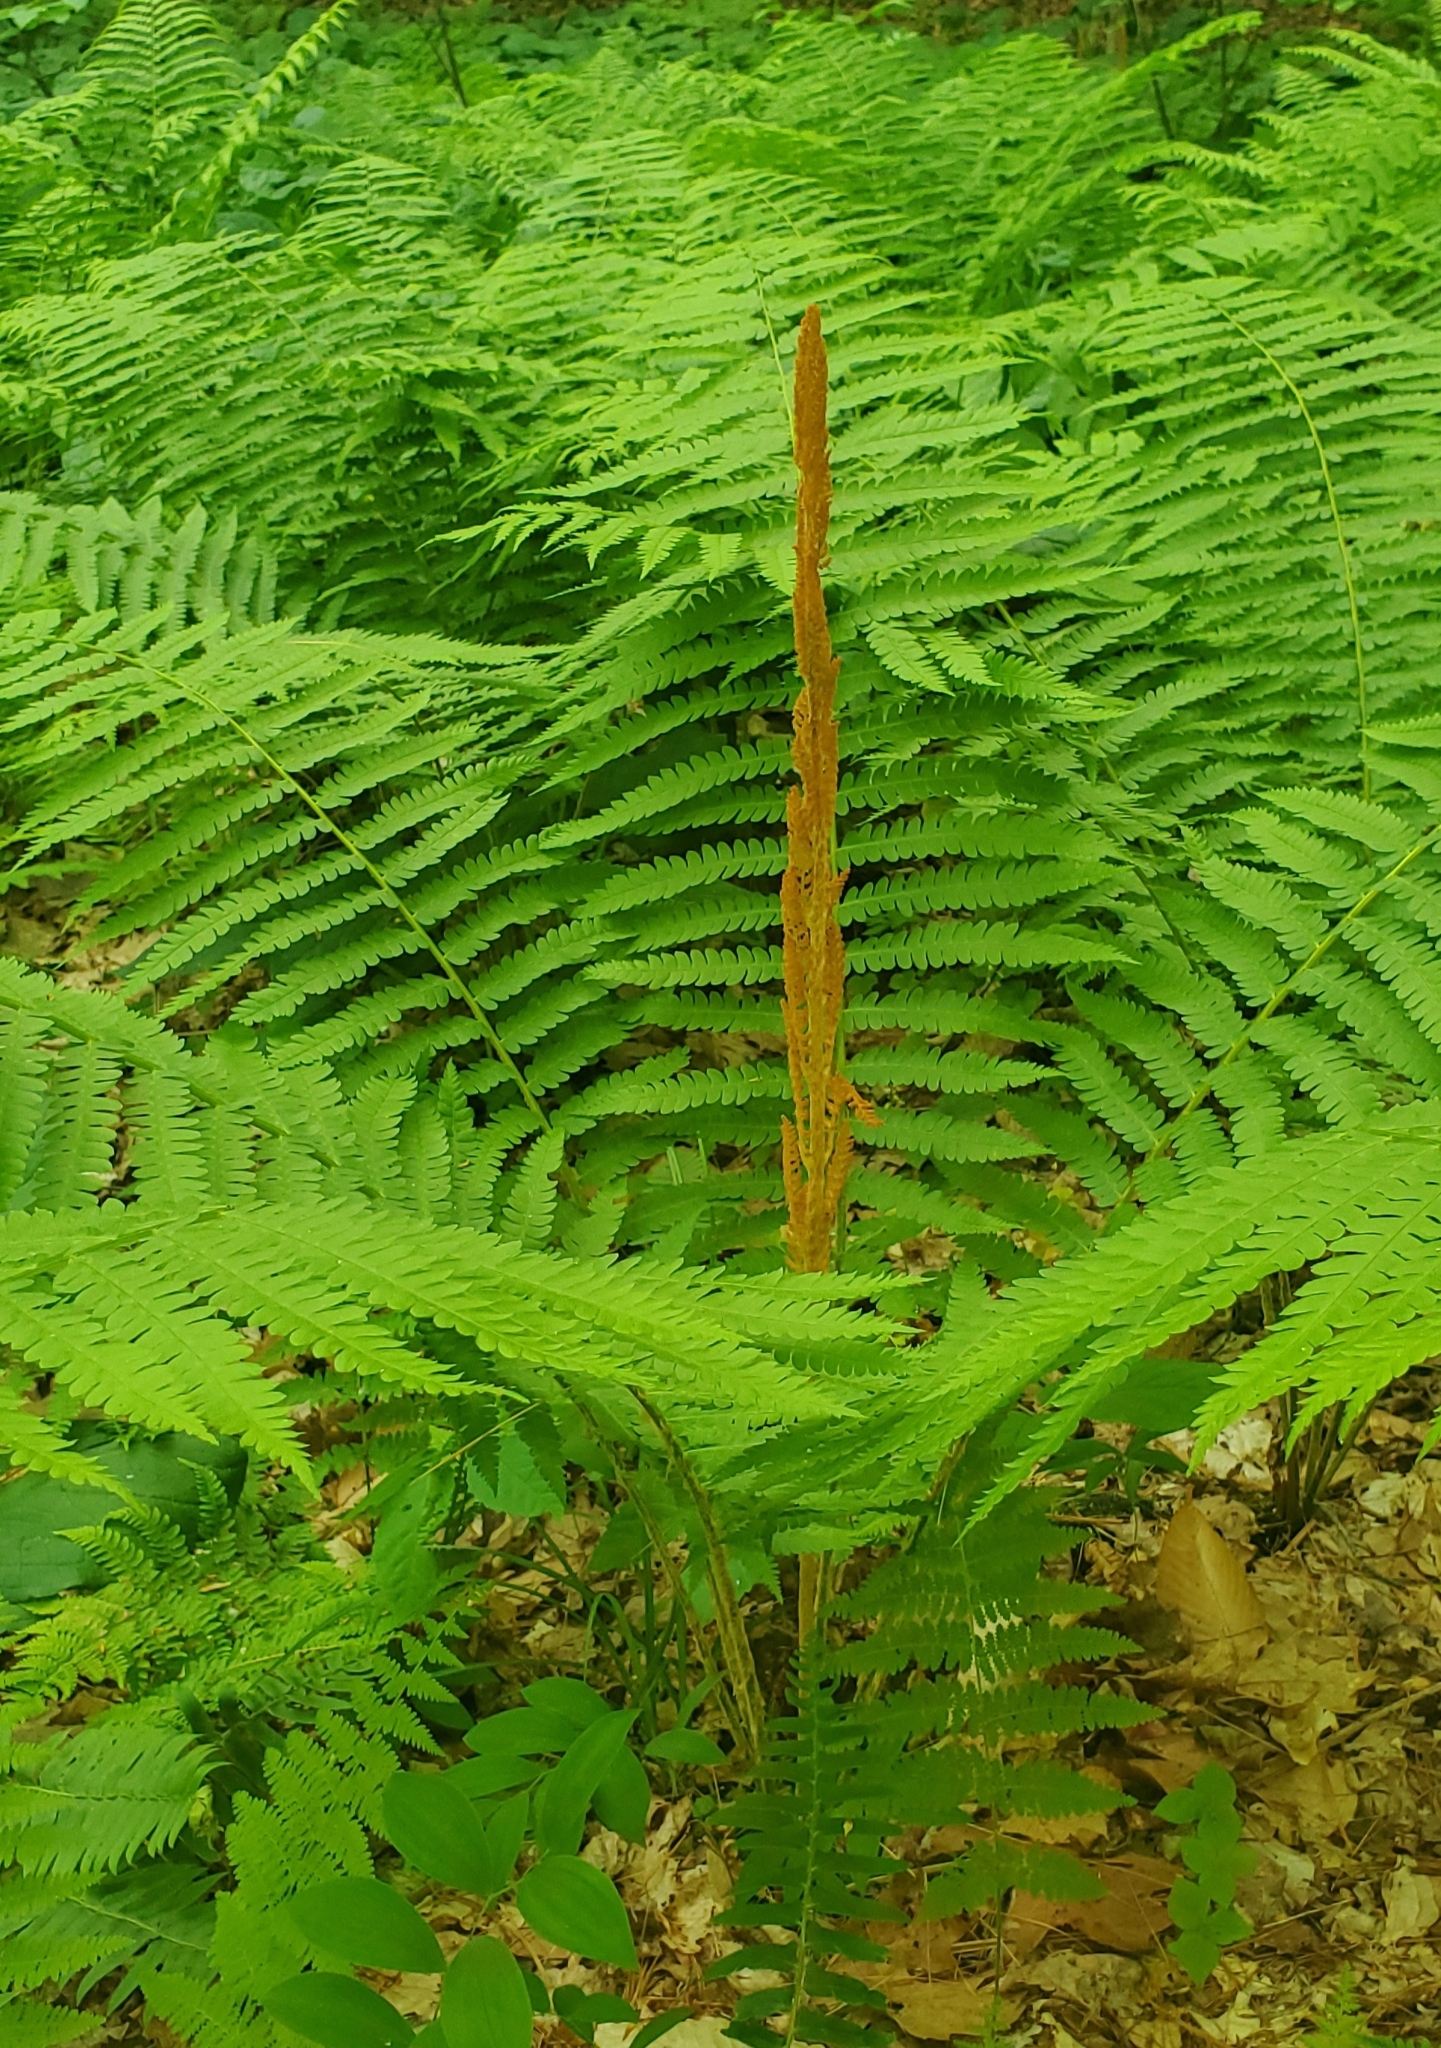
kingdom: Plantae
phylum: Tracheophyta
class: Polypodiopsida
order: Osmundales
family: Osmundaceae
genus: Osmundastrum
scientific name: Osmundastrum cinnamomeum
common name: Cinnamon fern
